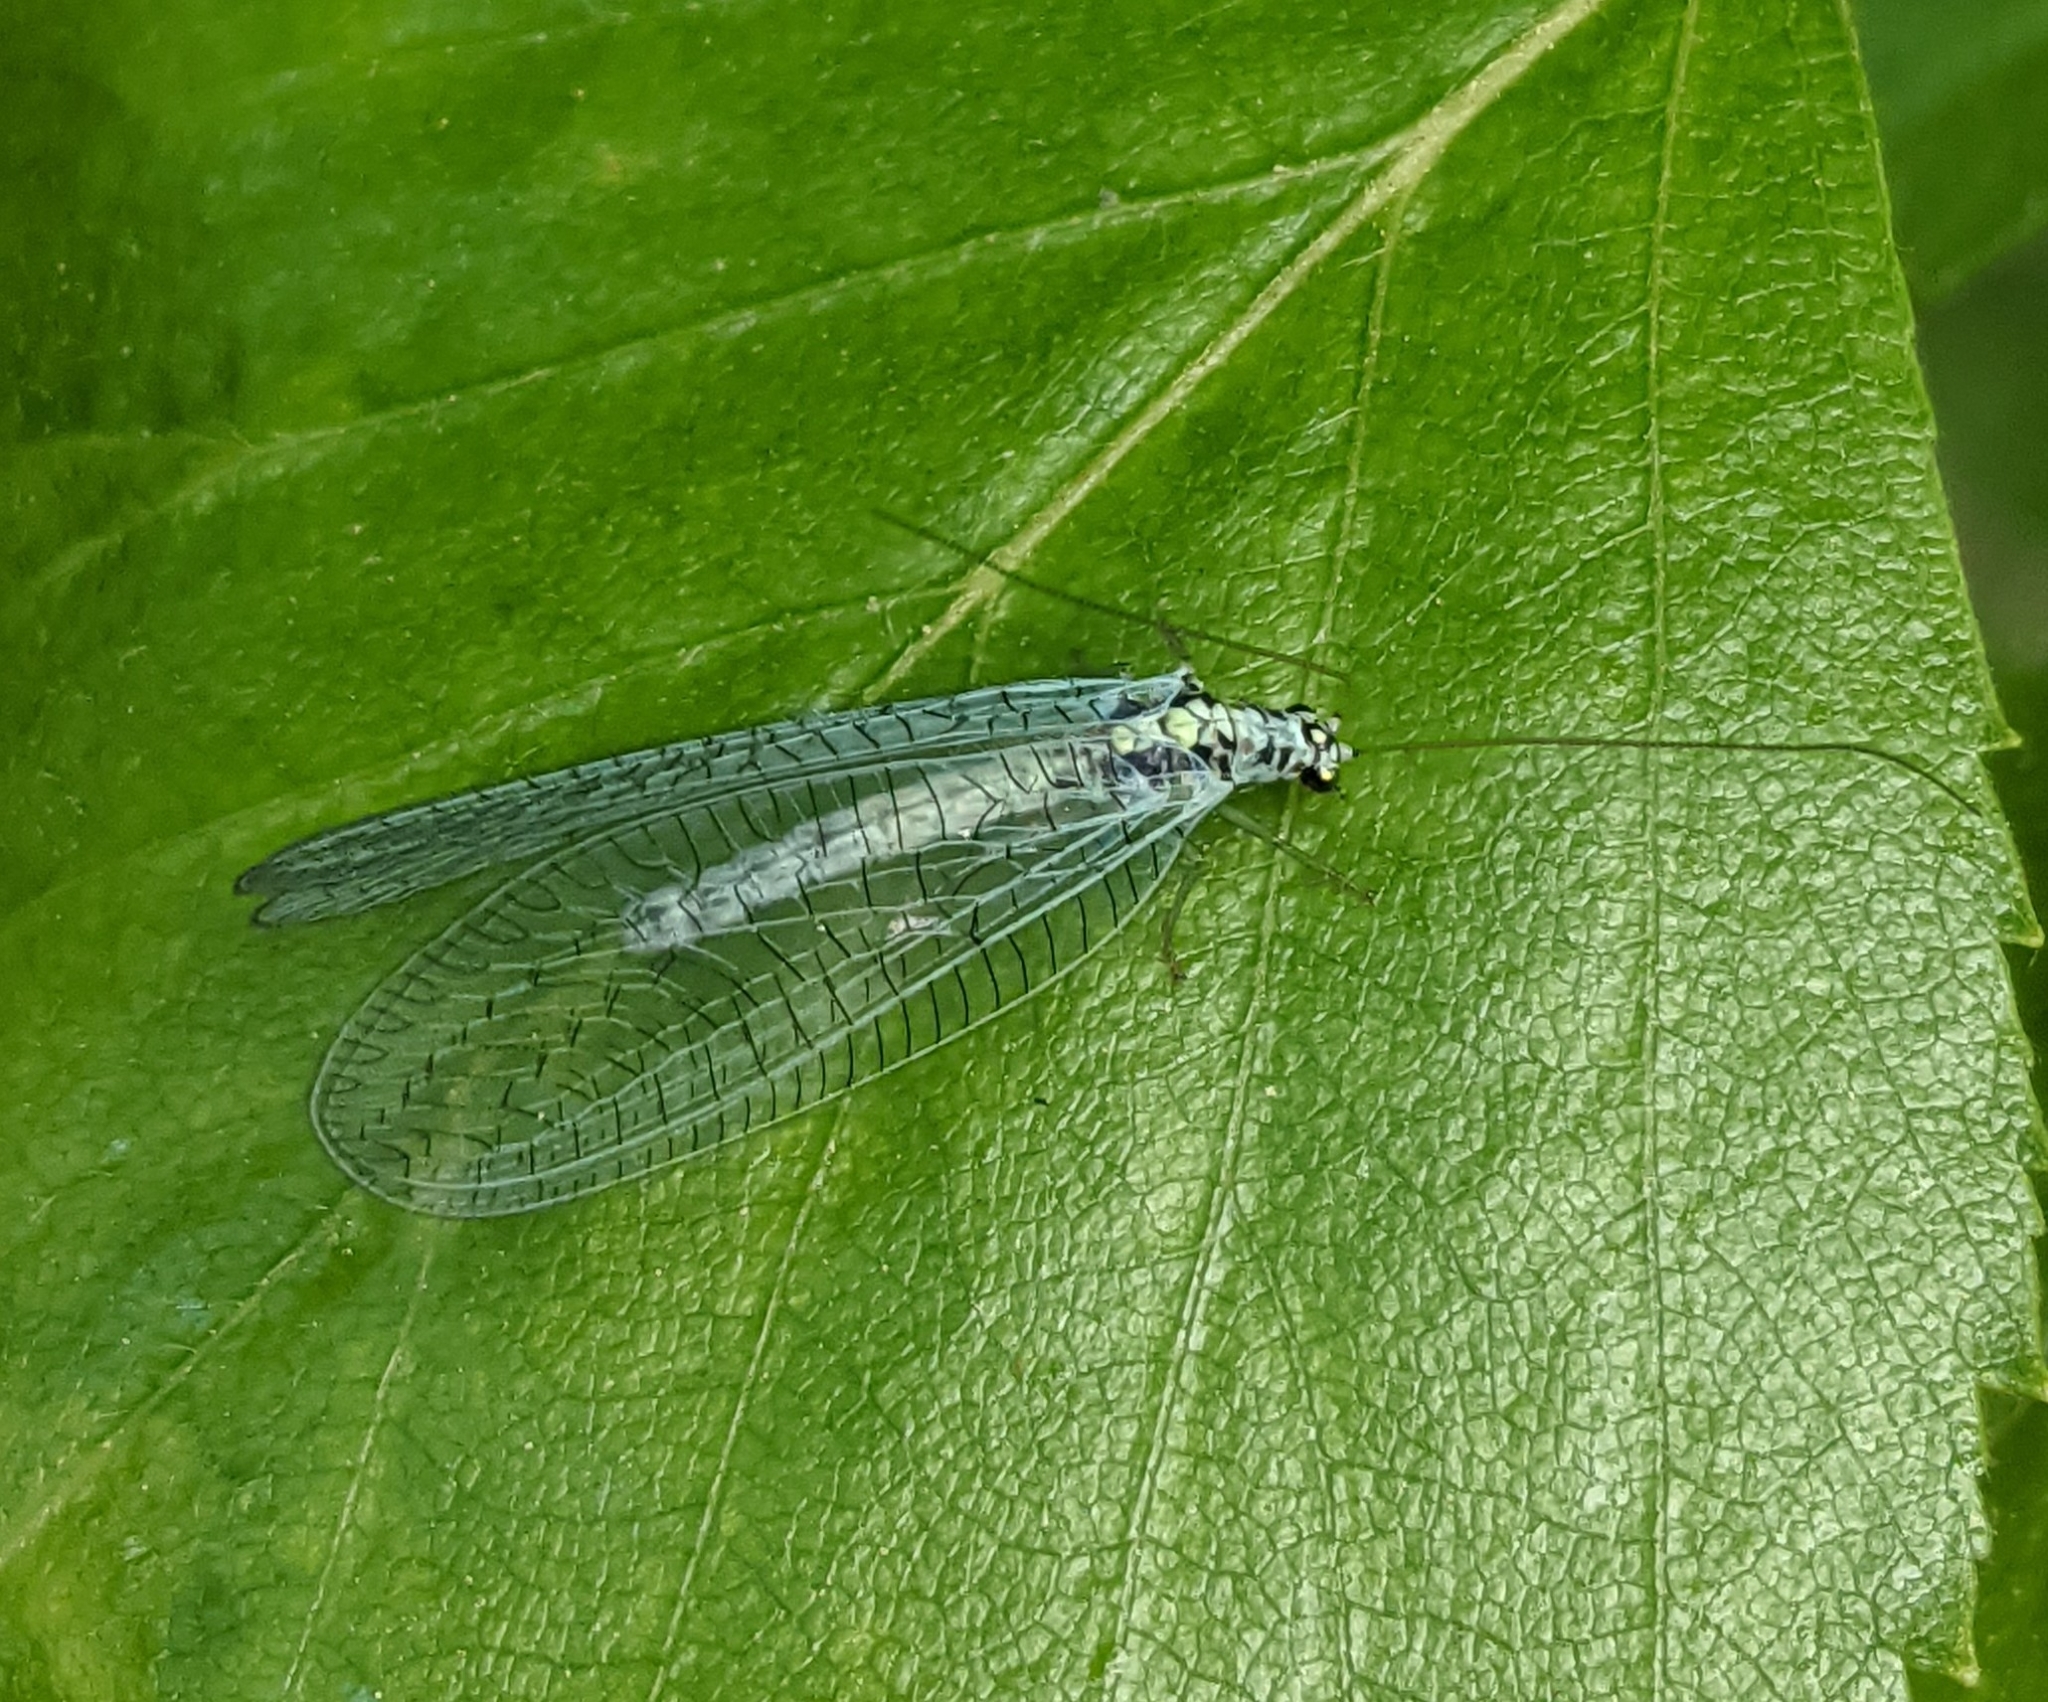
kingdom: Animalia
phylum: Arthropoda
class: Insecta
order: Neuroptera
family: Chrysopidae
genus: Chrysopa
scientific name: Chrysopa perla
